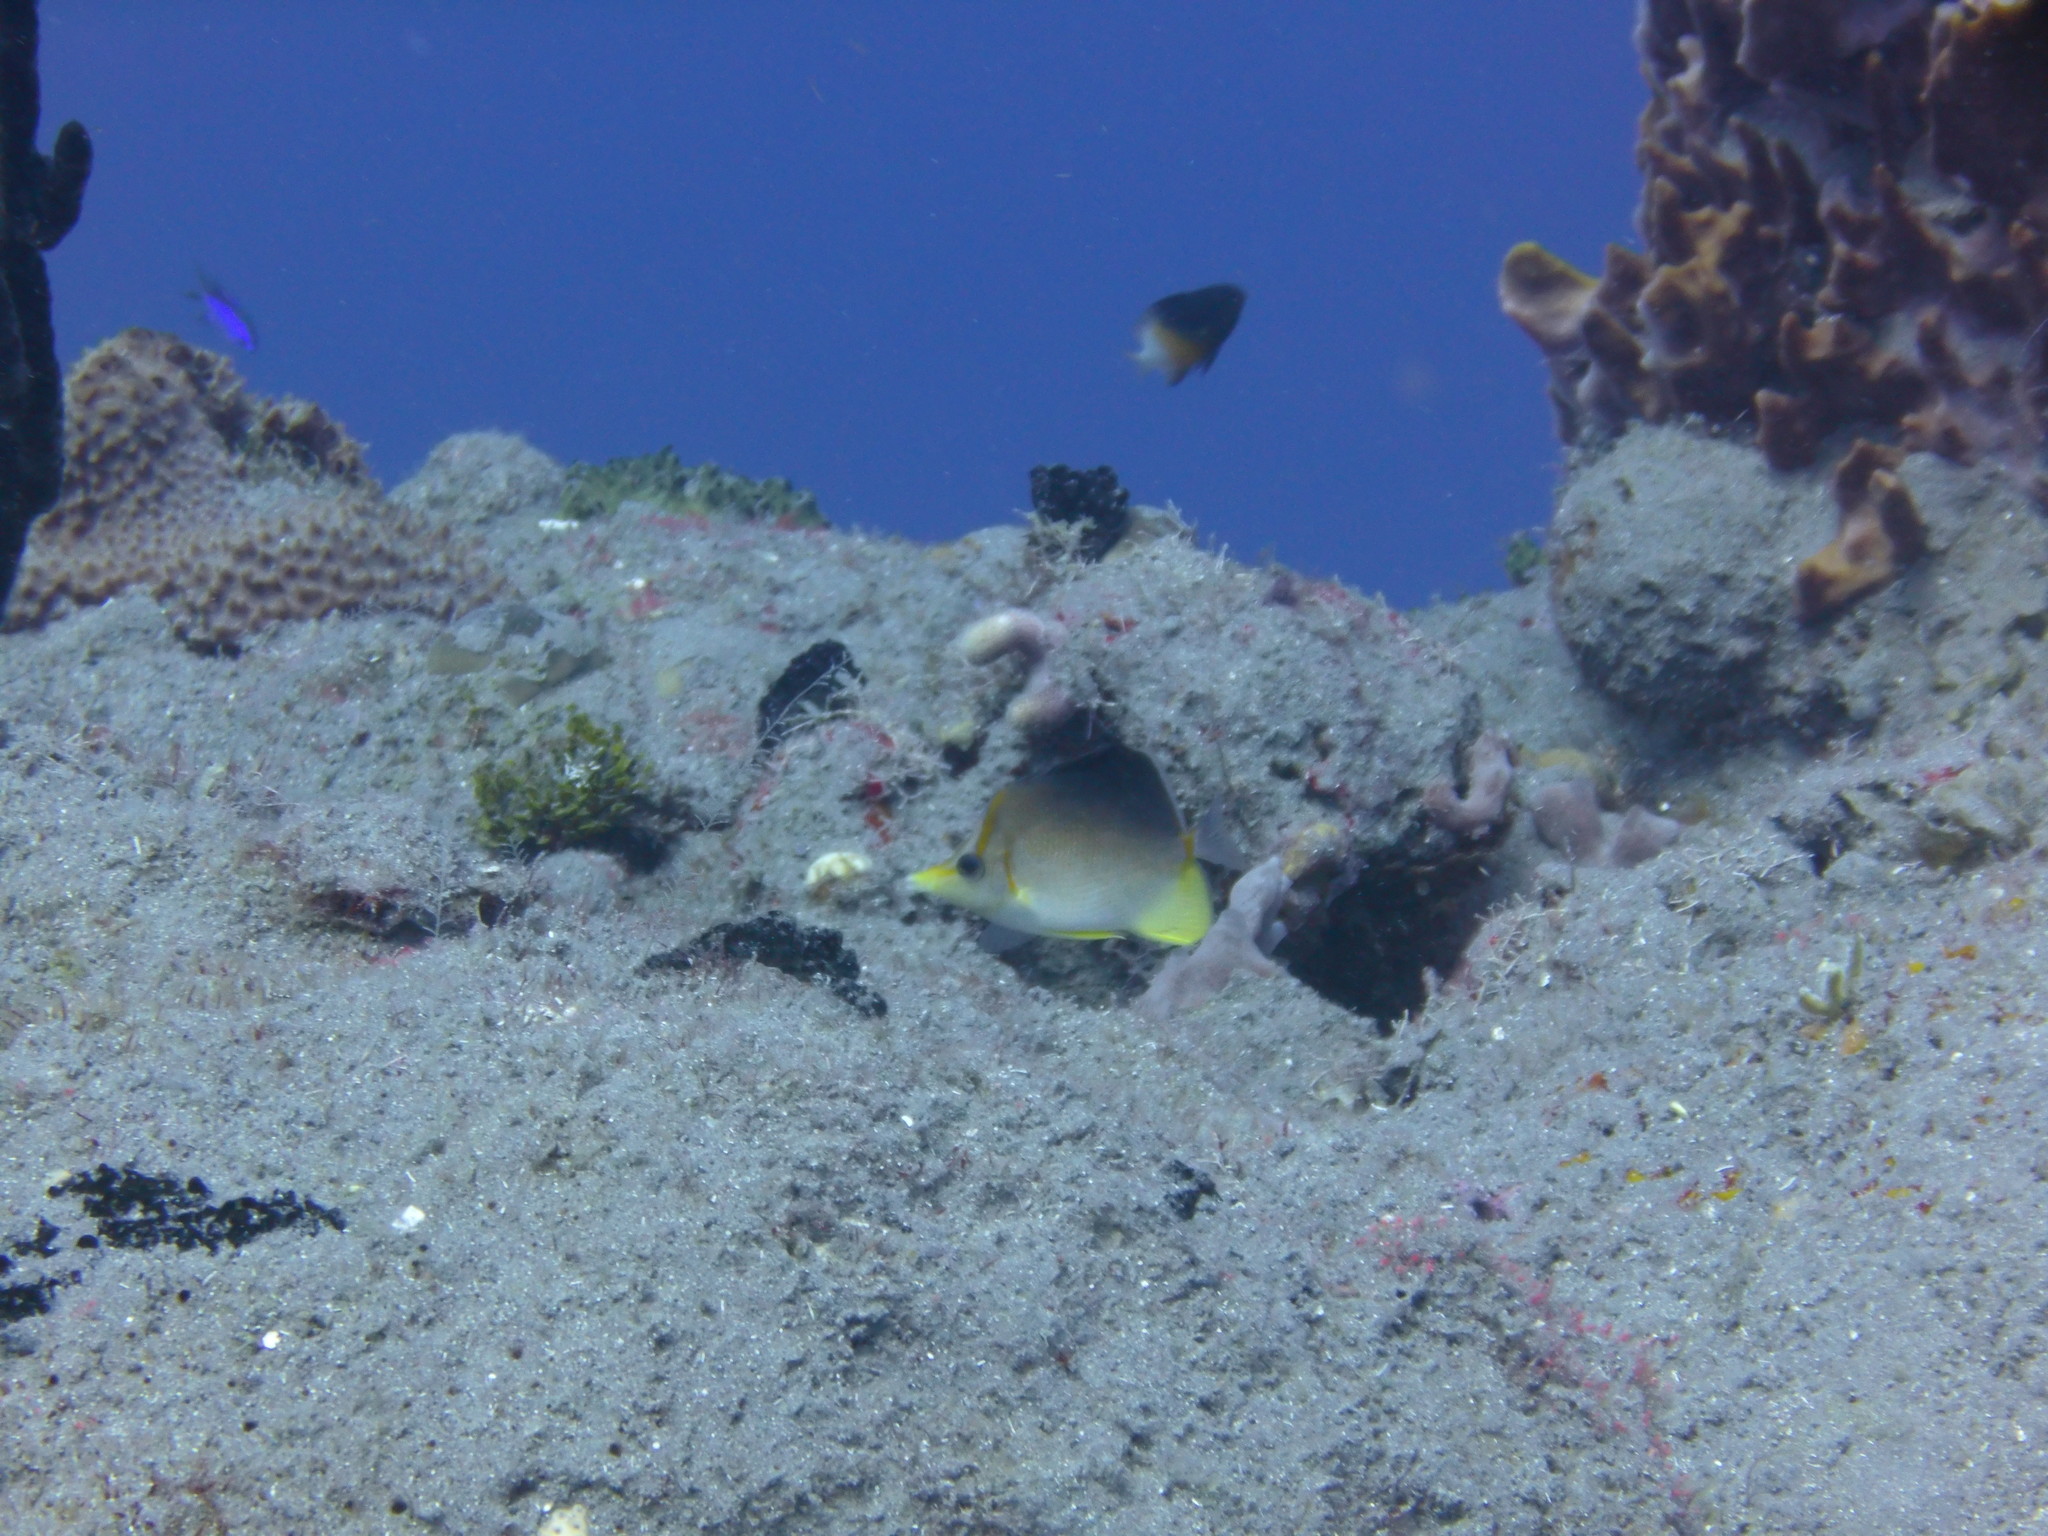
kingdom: Animalia
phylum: Chordata
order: Perciformes
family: Chaetodontidae
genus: Prognathodes
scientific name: Prognathodes aculeatus
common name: Longsnout butterflyfish
